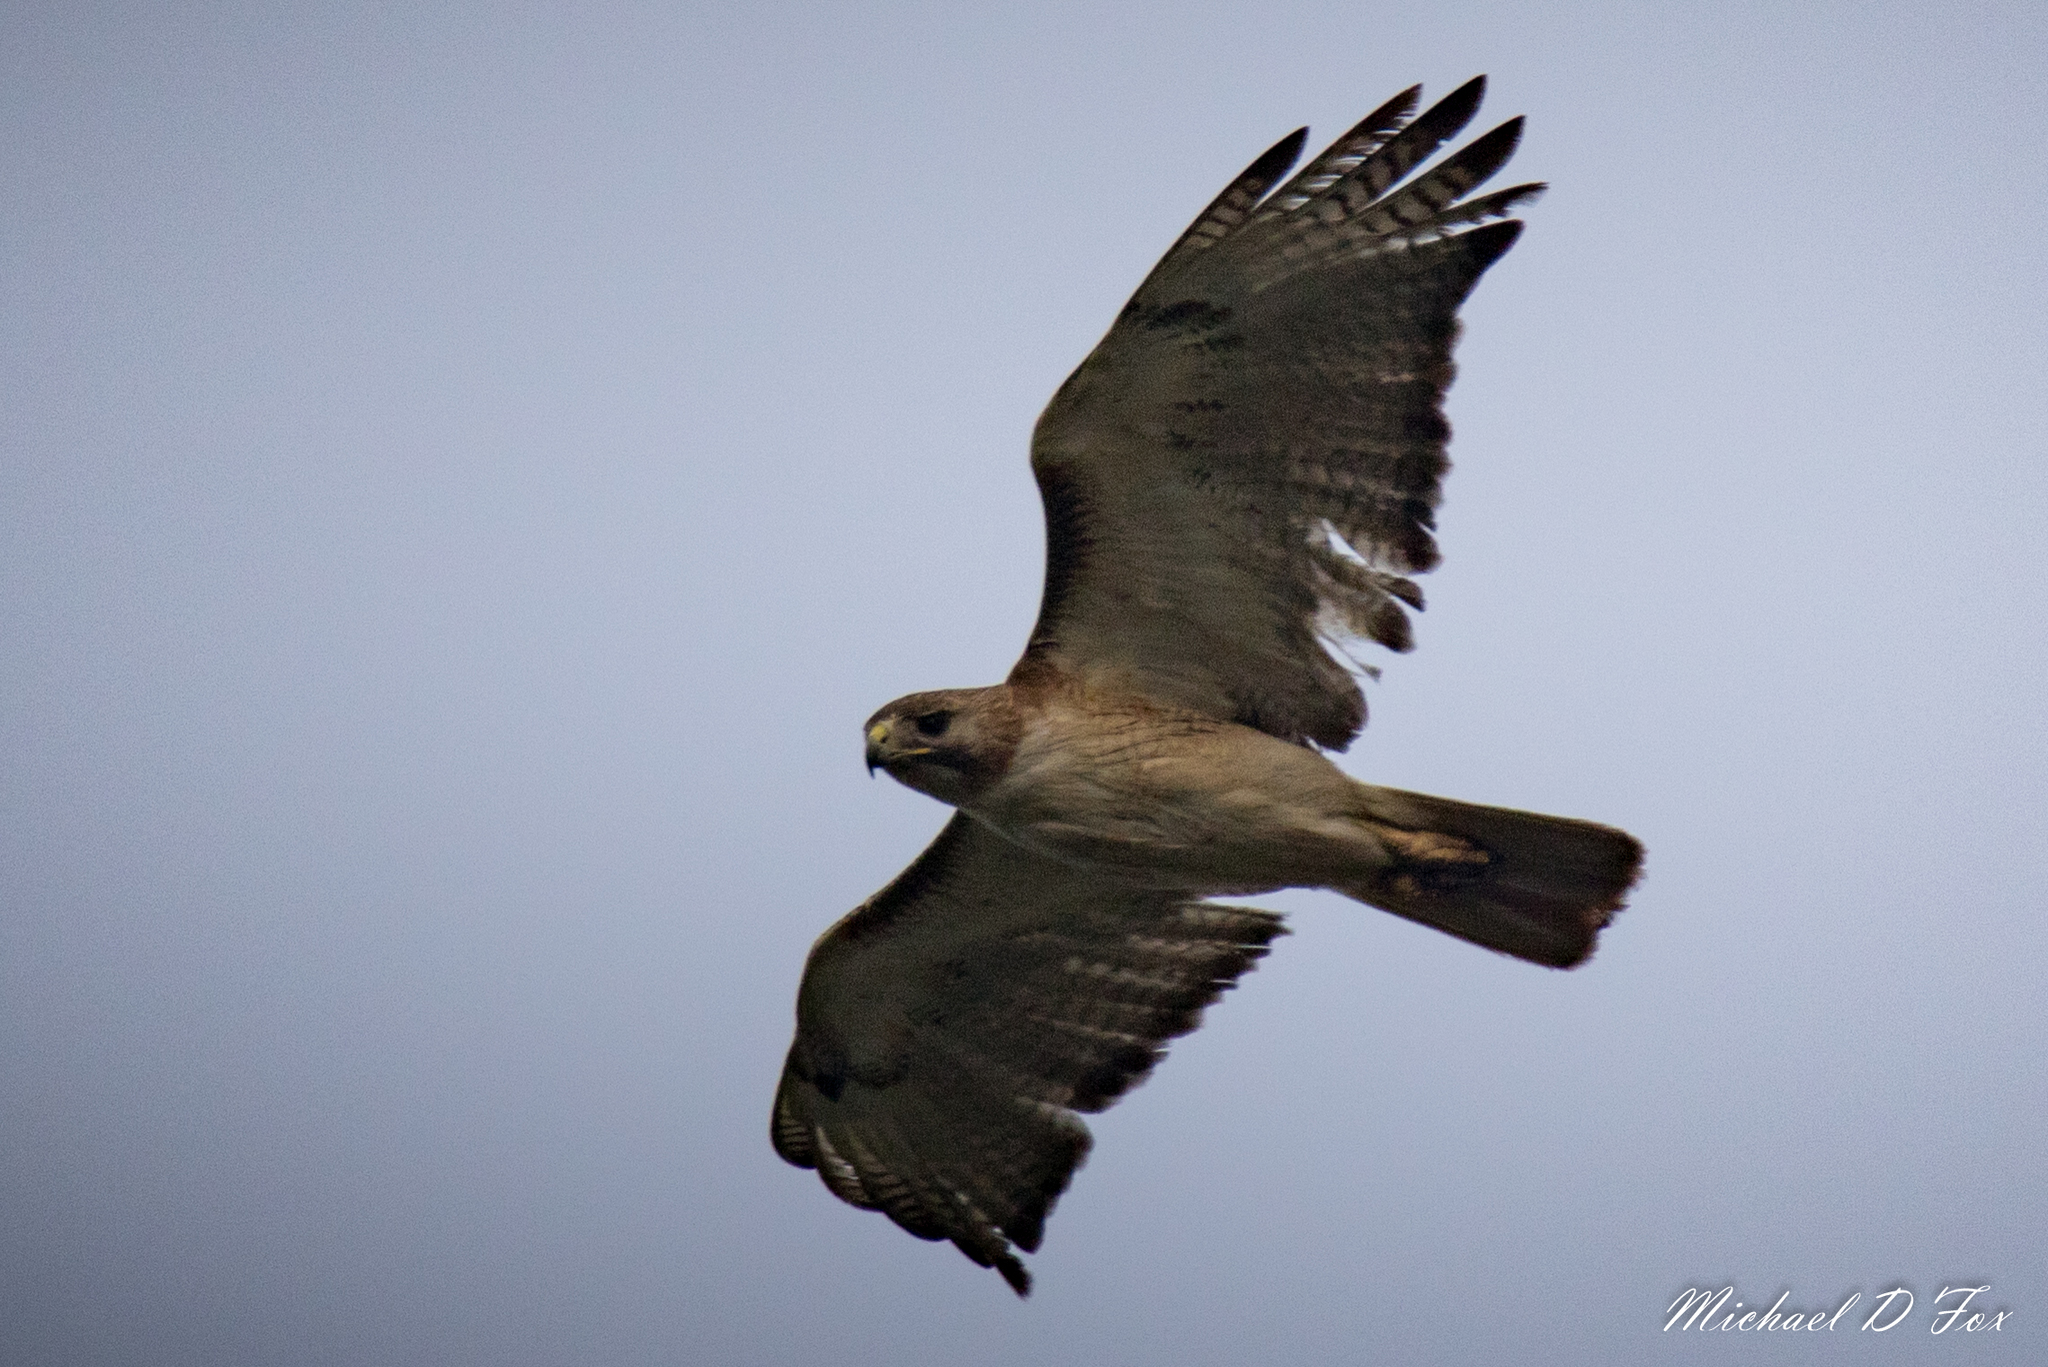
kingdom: Animalia
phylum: Chordata
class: Aves
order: Accipitriformes
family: Accipitridae
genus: Buteo
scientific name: Buteo jamaicensis
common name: Red-tailed hawk
